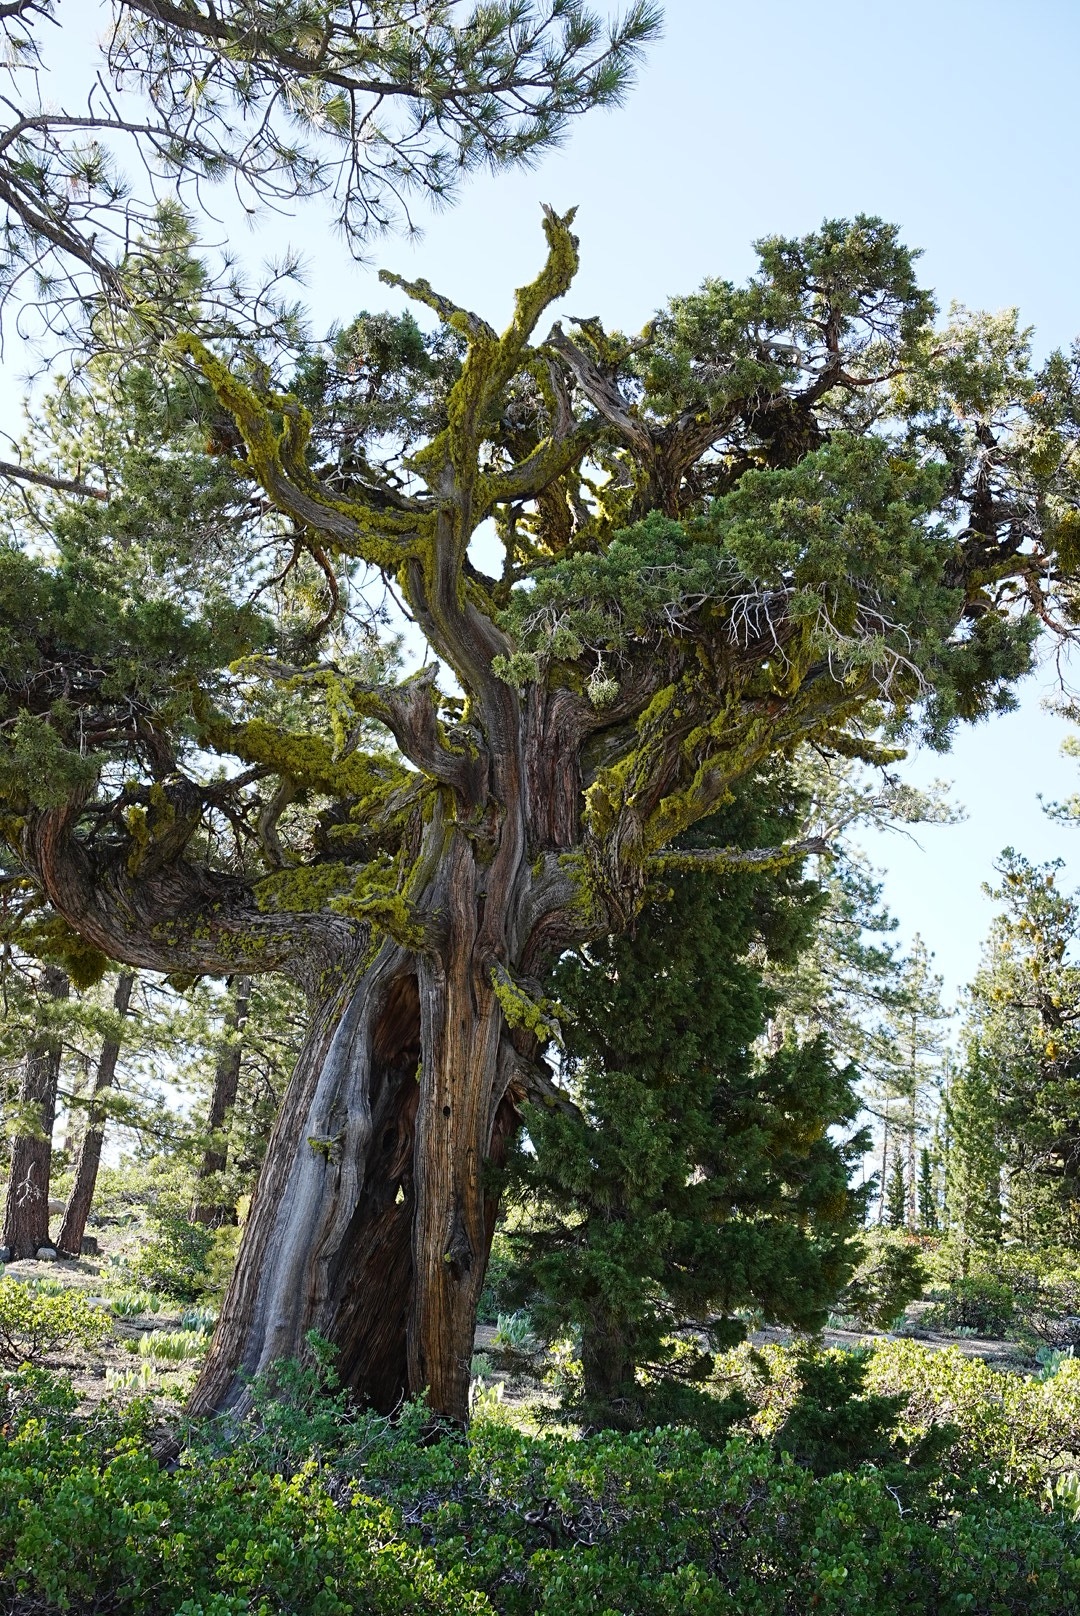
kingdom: Plantae
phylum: Tracheophyta
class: Pinopsida
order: Pinales
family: Cupressaceae
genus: Juniperus
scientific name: Juniperus occidentalis
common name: Western juniper
